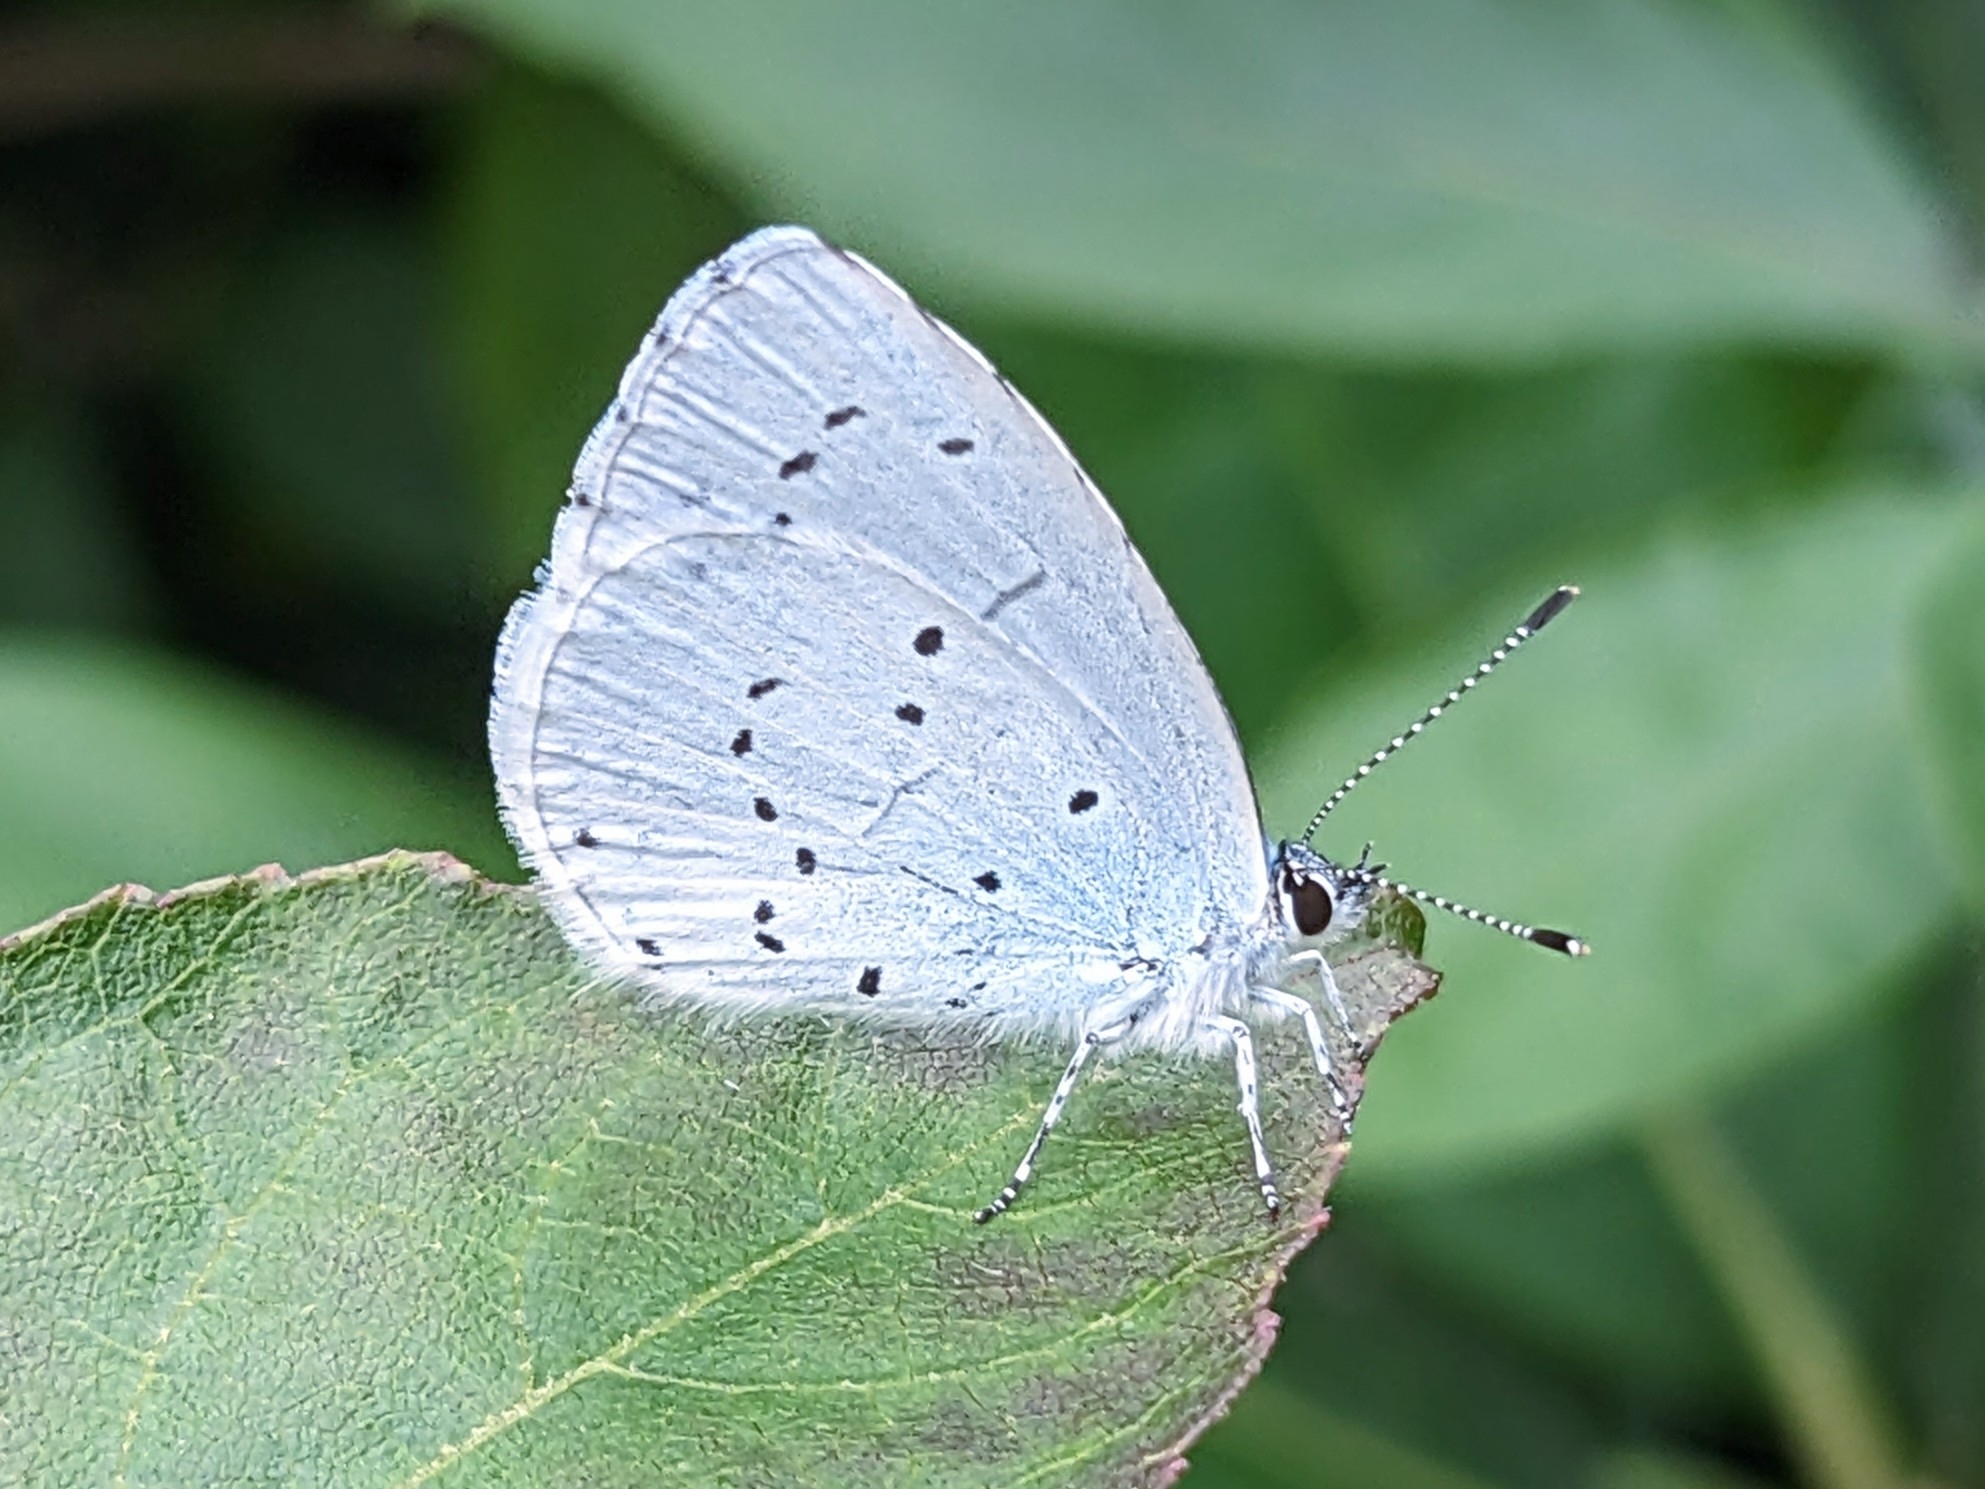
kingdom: Animalia
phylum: Arthropoda
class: Insecta
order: Lepidoptera
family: Lycaenidae
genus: Celastrina
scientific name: Celastrina argiolus
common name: Holly blue
